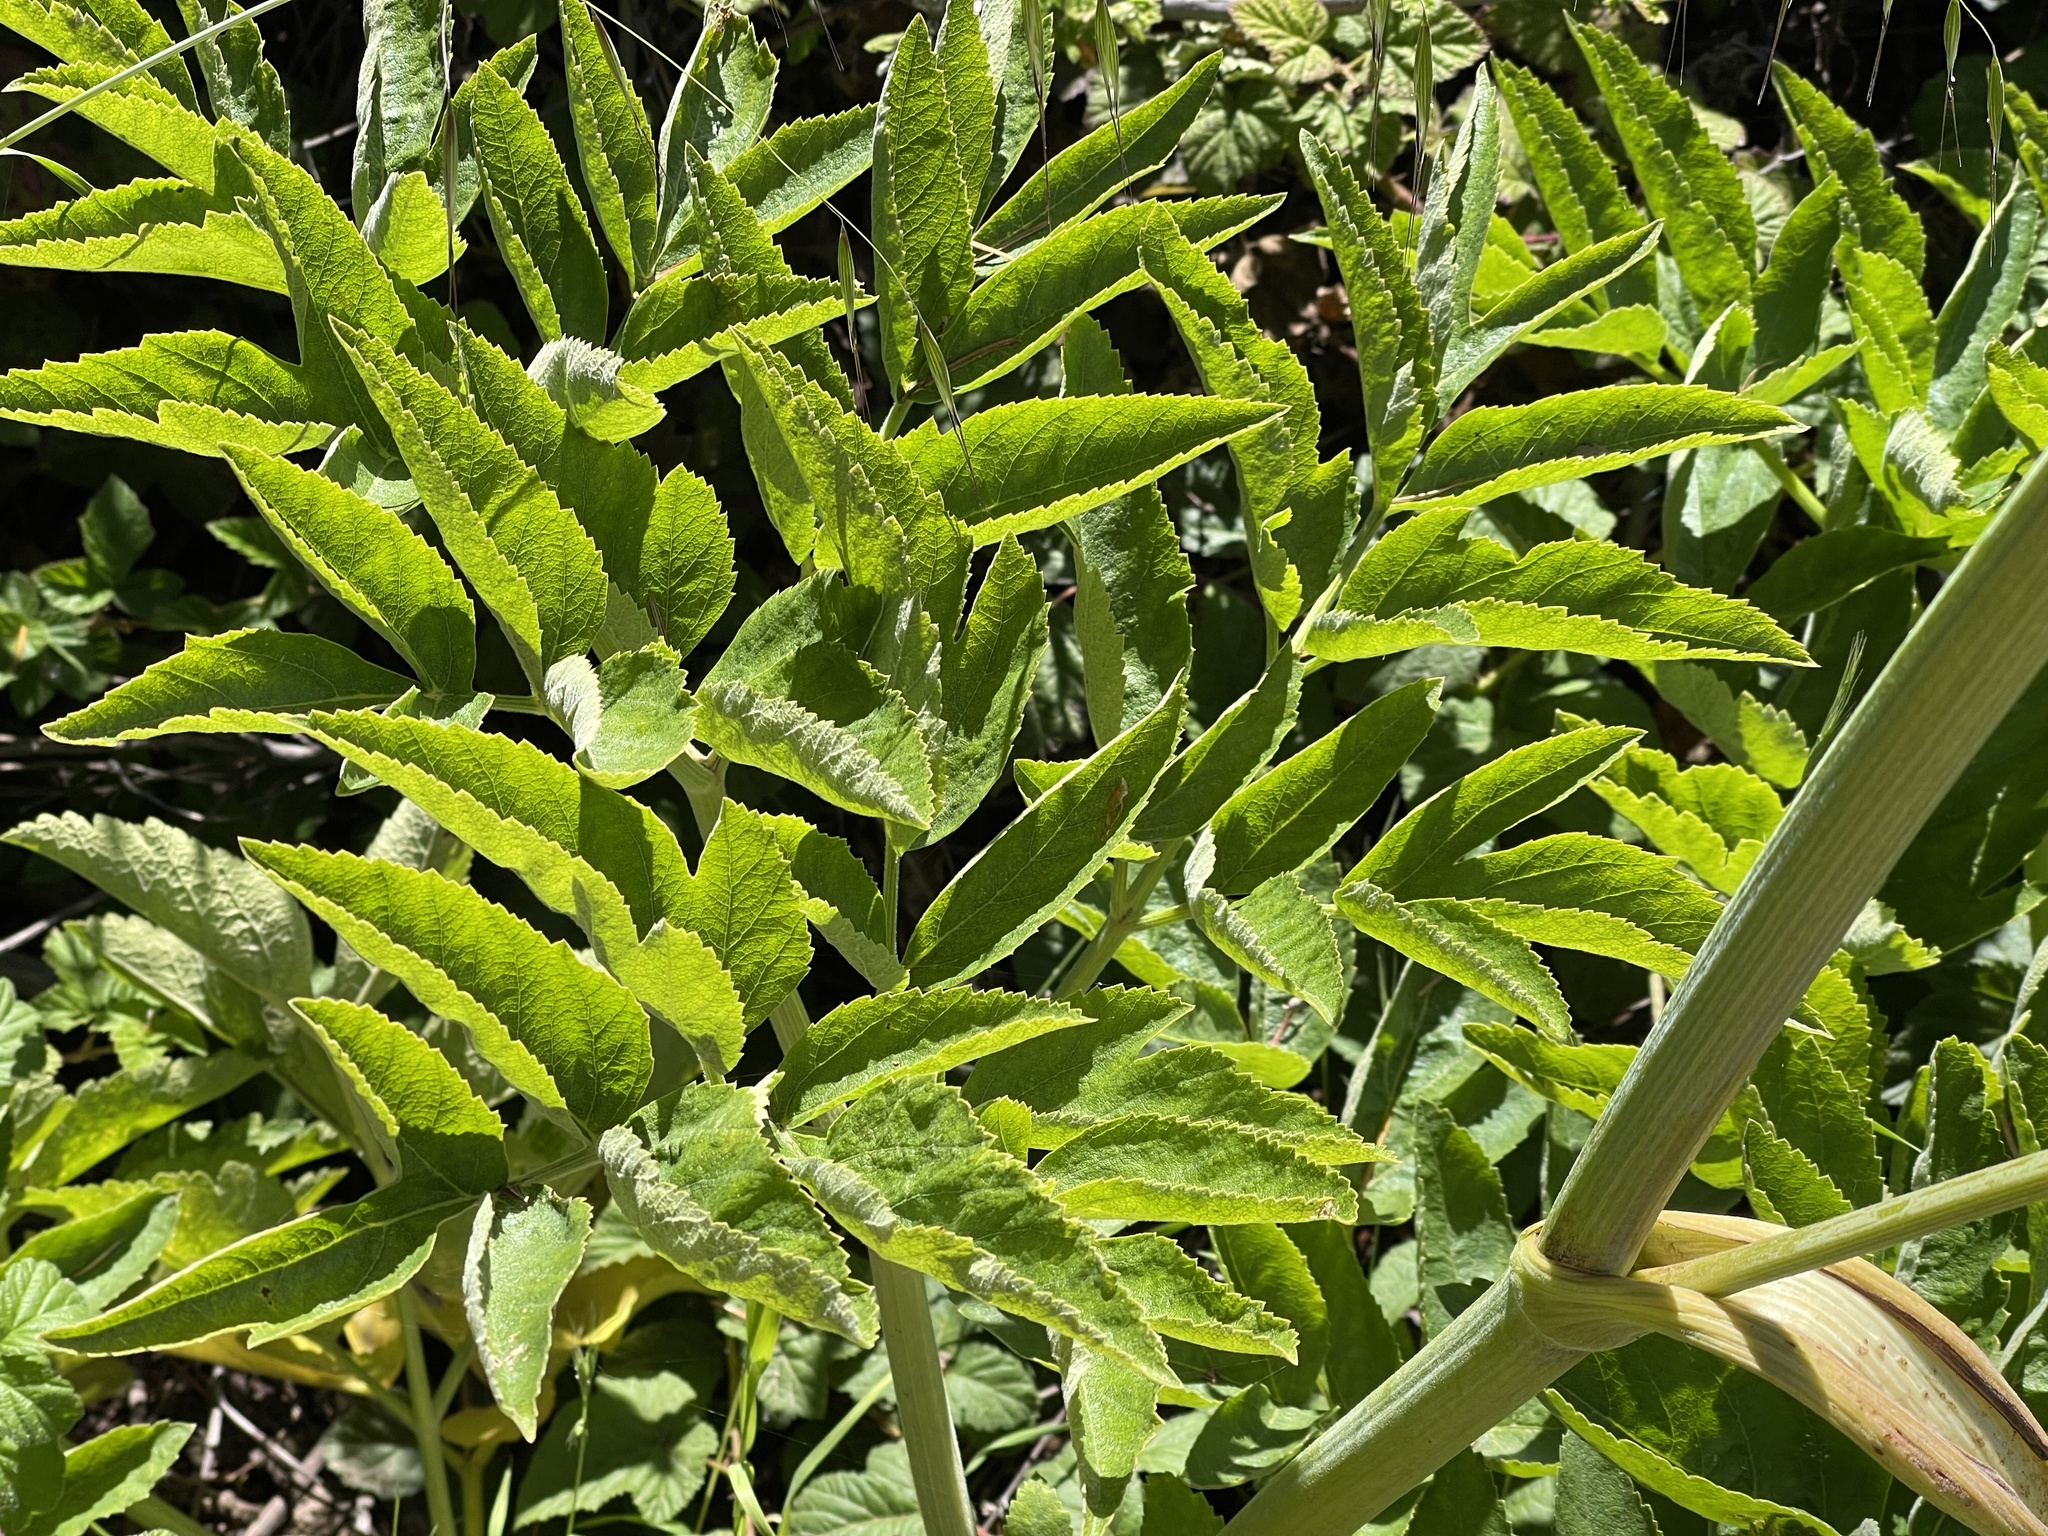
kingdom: Plantae
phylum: Tracheophyta
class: Magnoliopsida
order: Apiales
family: Apiaceae
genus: Heracleum
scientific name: Heracleum maximum
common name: American cow parsnip
